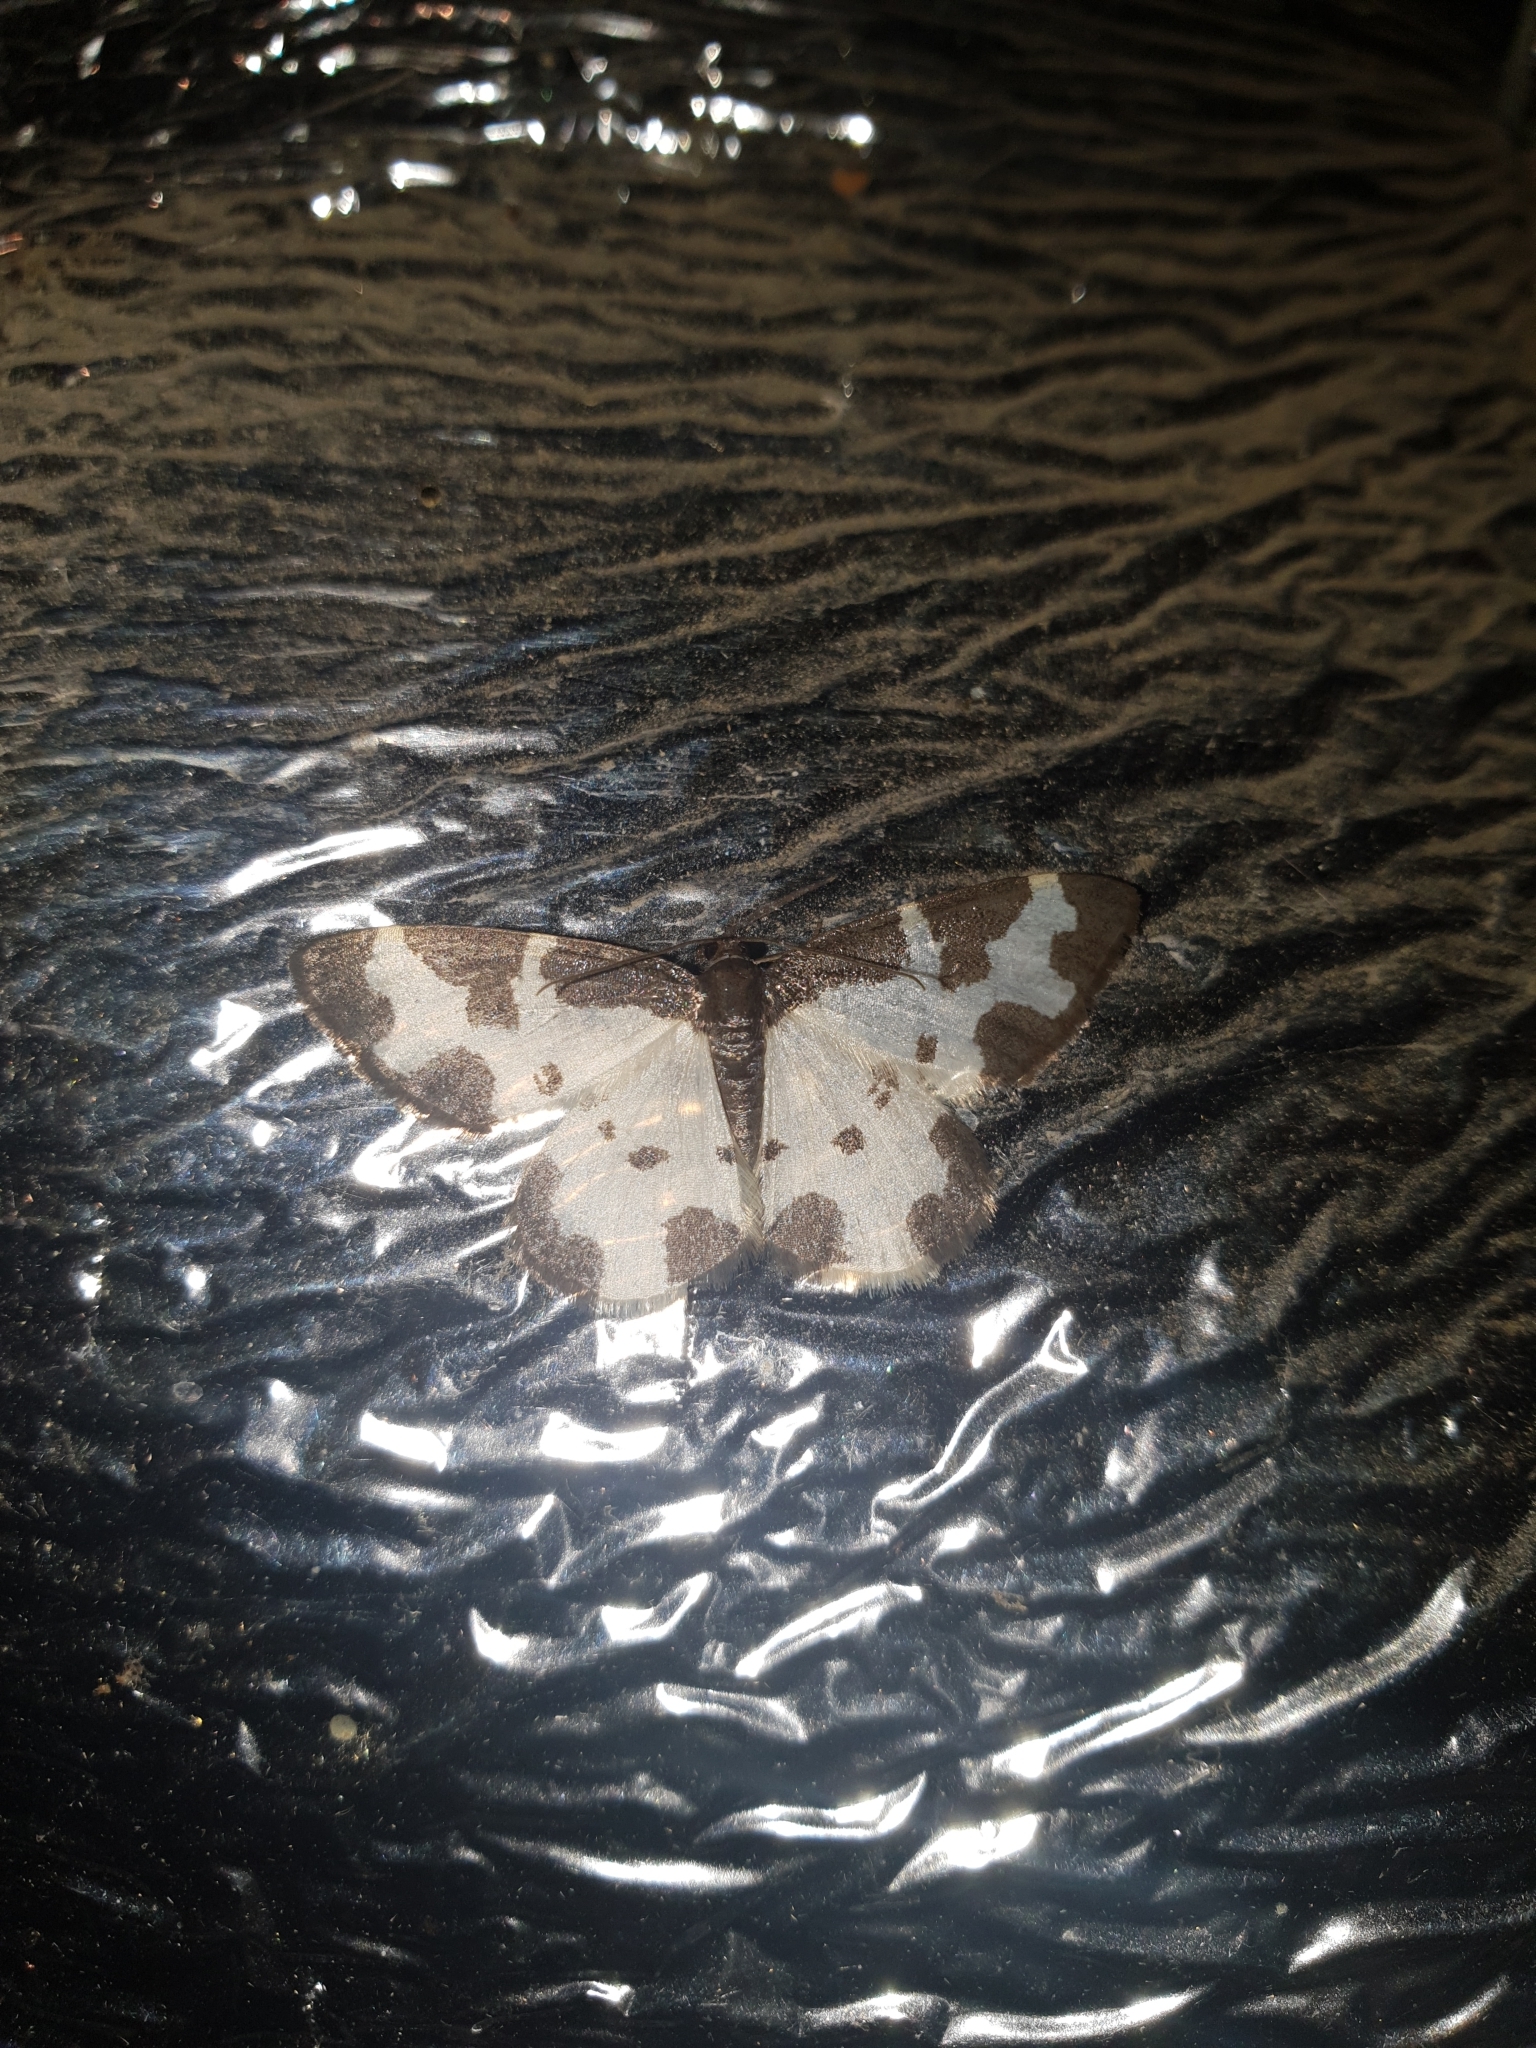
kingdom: Animalia
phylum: Arthropoda
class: Insecta
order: Lepidoptera
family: Geometridae
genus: Lomaspilis
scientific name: Lomaspilis marginata
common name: Clouded border
